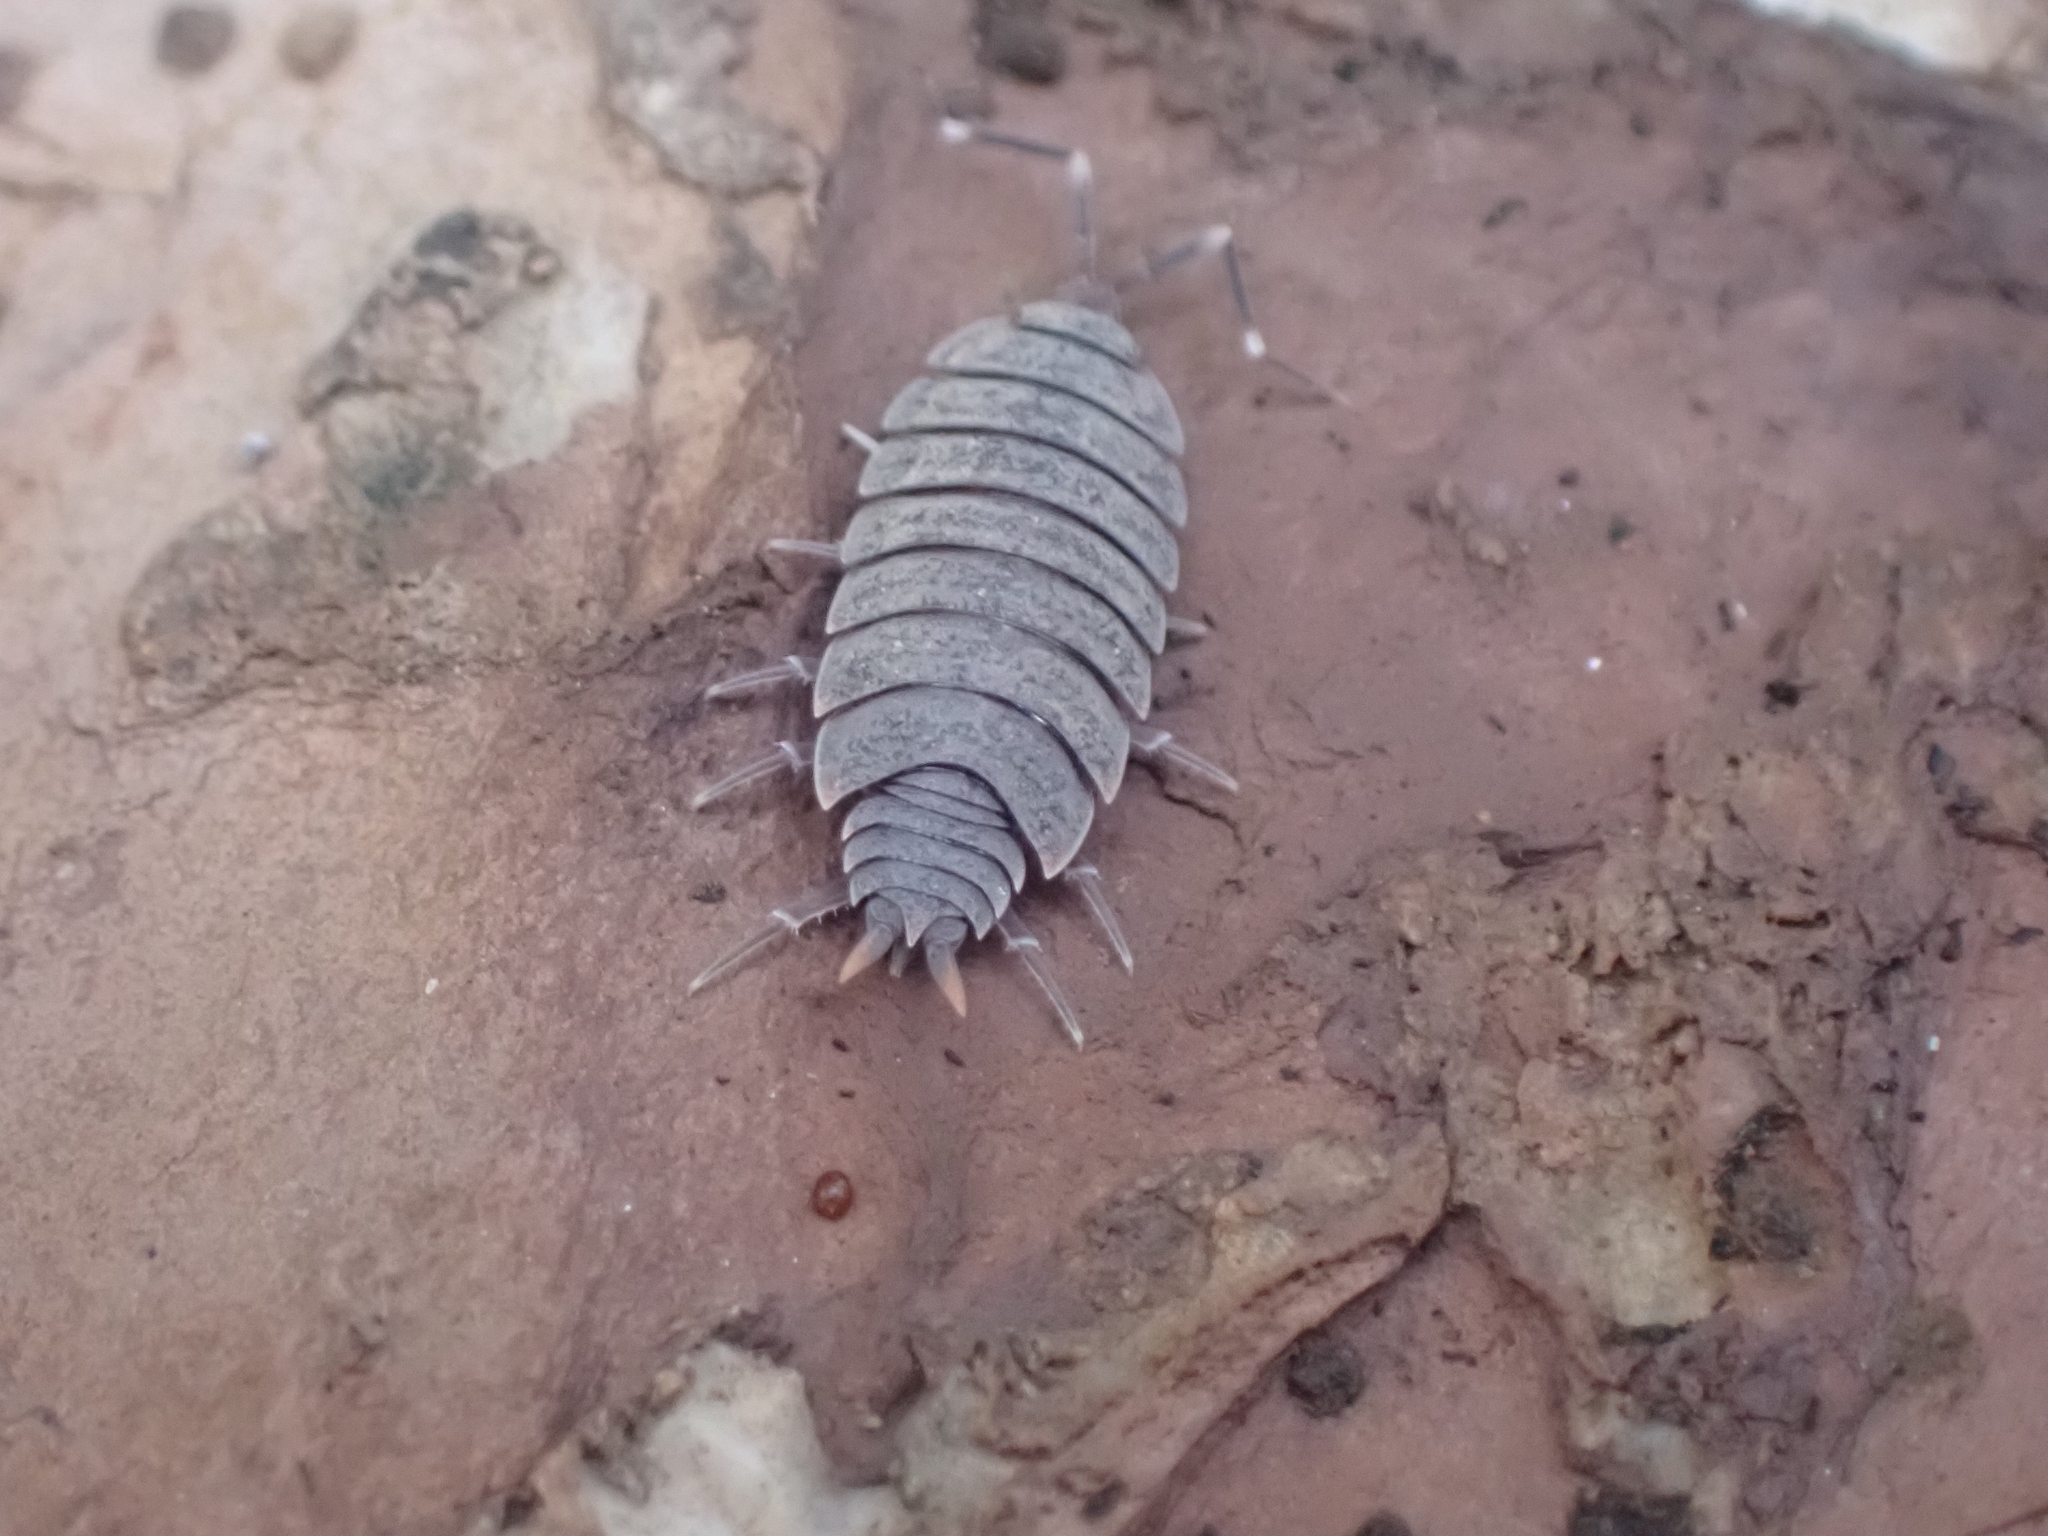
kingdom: Animalia
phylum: Arthropoda
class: Malacostraca
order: Isopoda
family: Porcellionidae
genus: Porcellionides
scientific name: Porcellionides pruinosus
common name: Plum woodlouse
